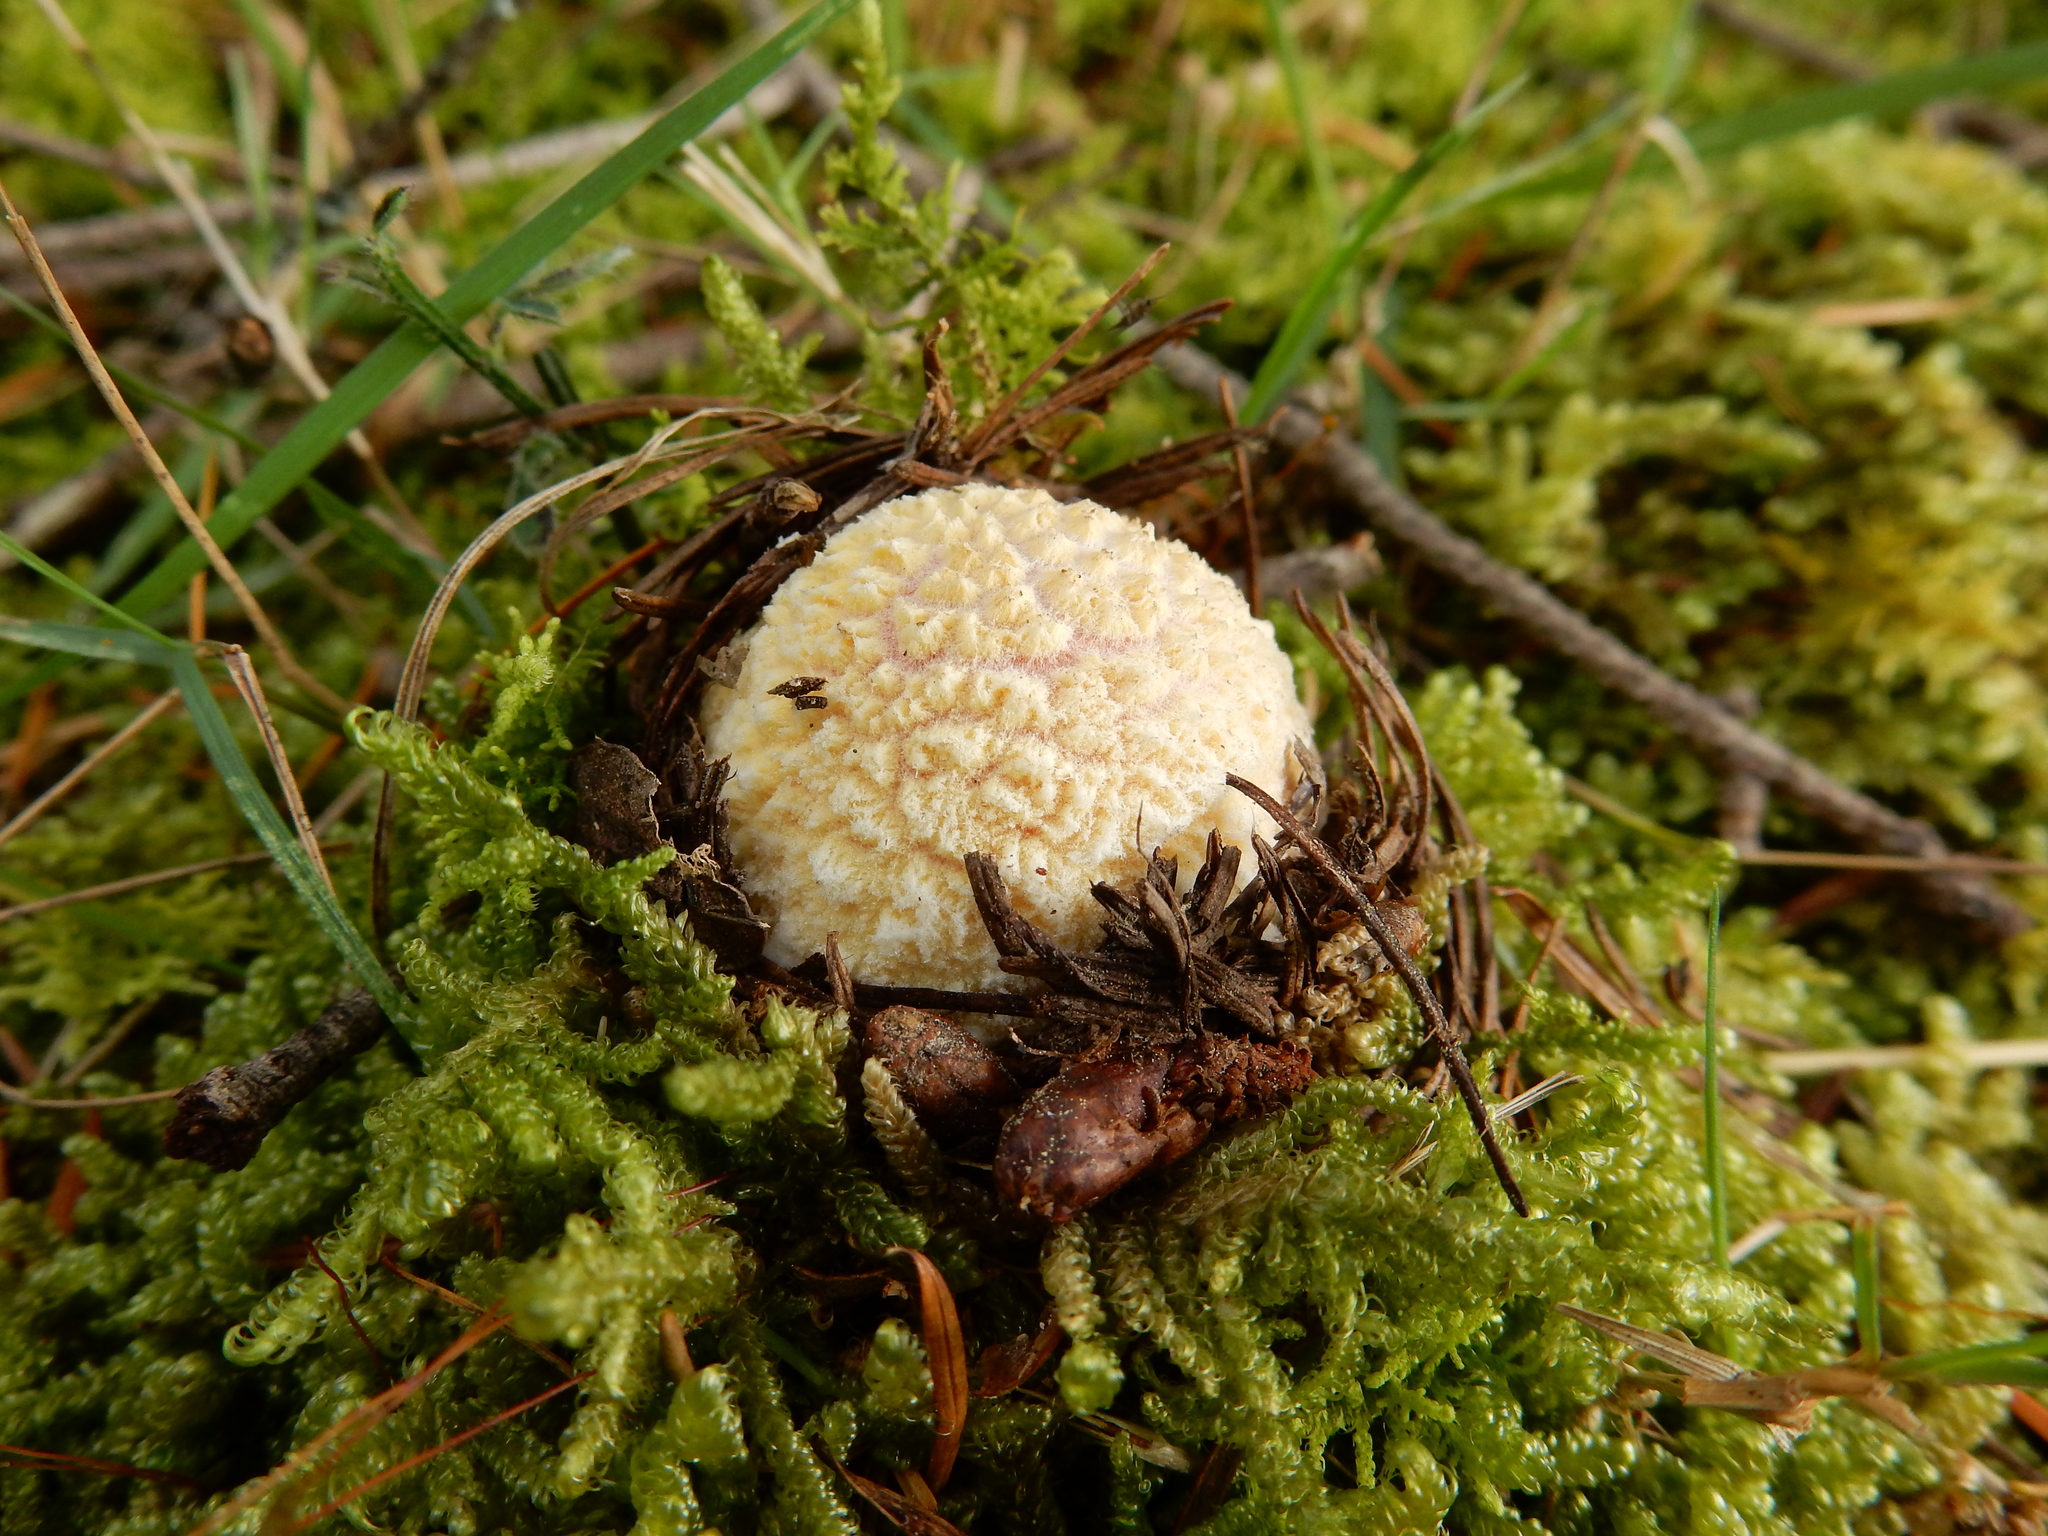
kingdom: Fungi
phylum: Basidiomycota
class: Agaricomycetes
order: Agaricales
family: Amanitaceae
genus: Amanita
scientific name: Amanita muscaria
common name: Fly agaric
